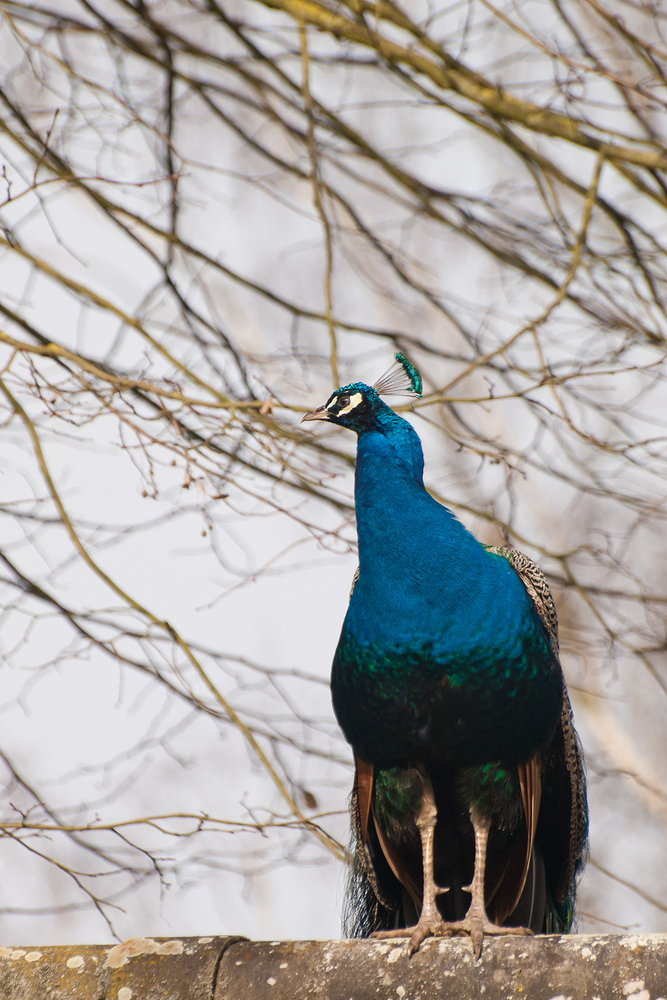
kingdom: Animalia
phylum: Chordata
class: Aves
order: Galliformes
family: Phasianidae
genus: Pavo
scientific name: Pavo cristatus
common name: Indian peafowl
